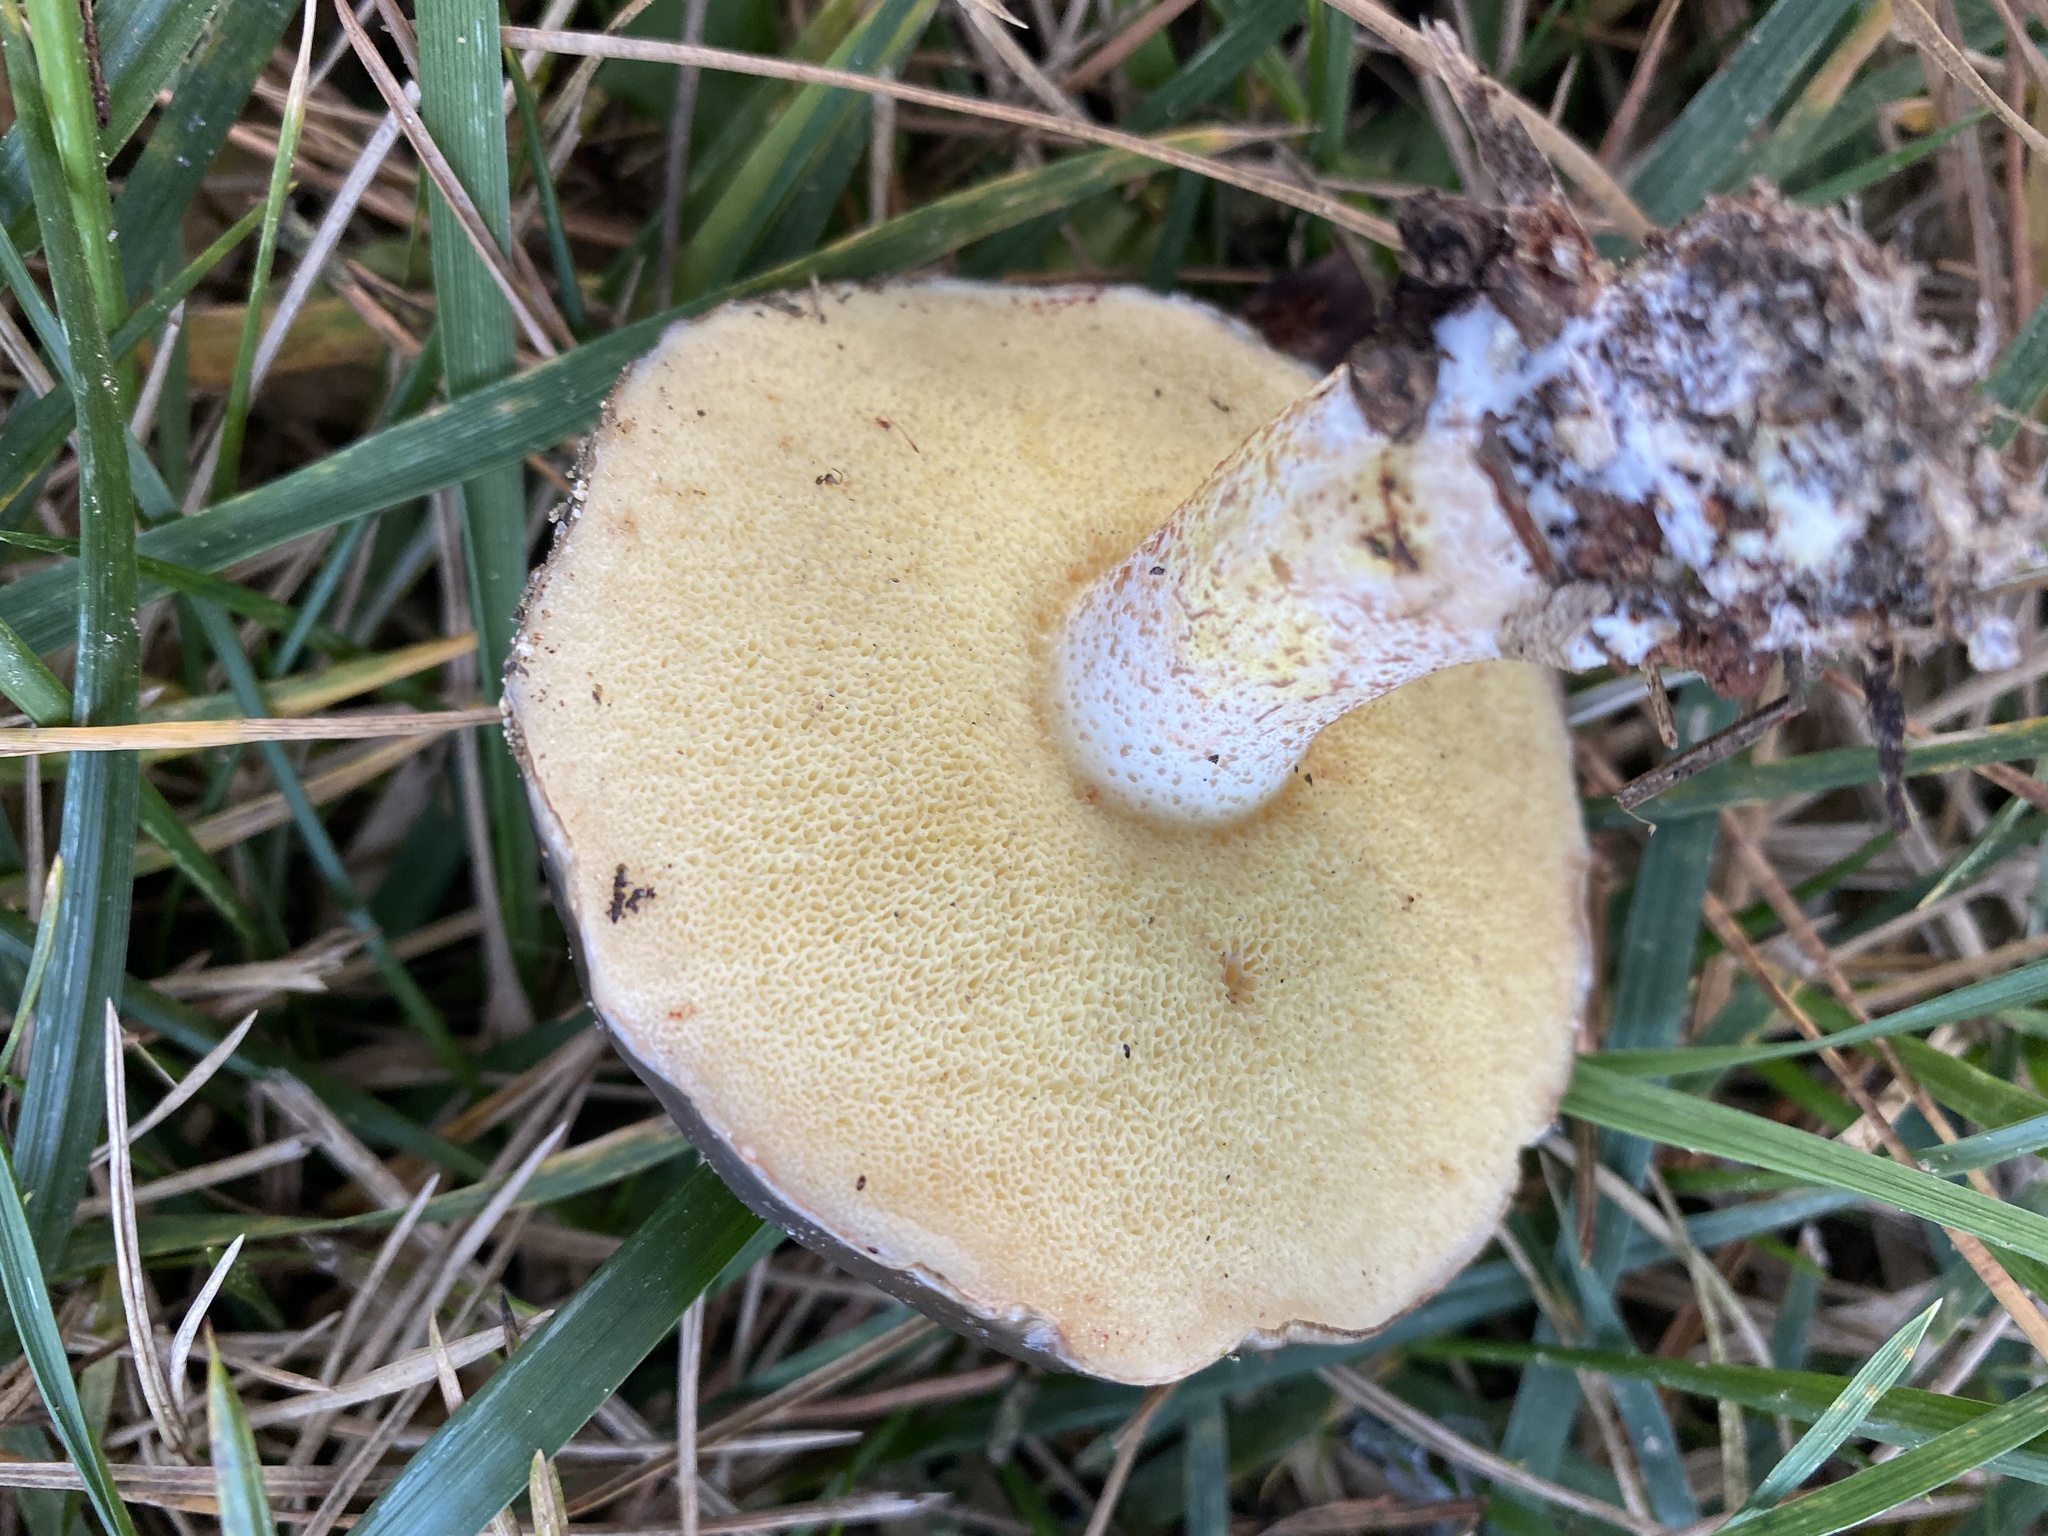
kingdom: Fungi
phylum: Basidiomycota
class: Agaricomycetes
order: Boletales
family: Suillaceae
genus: Suillus
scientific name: Suillus pungens
